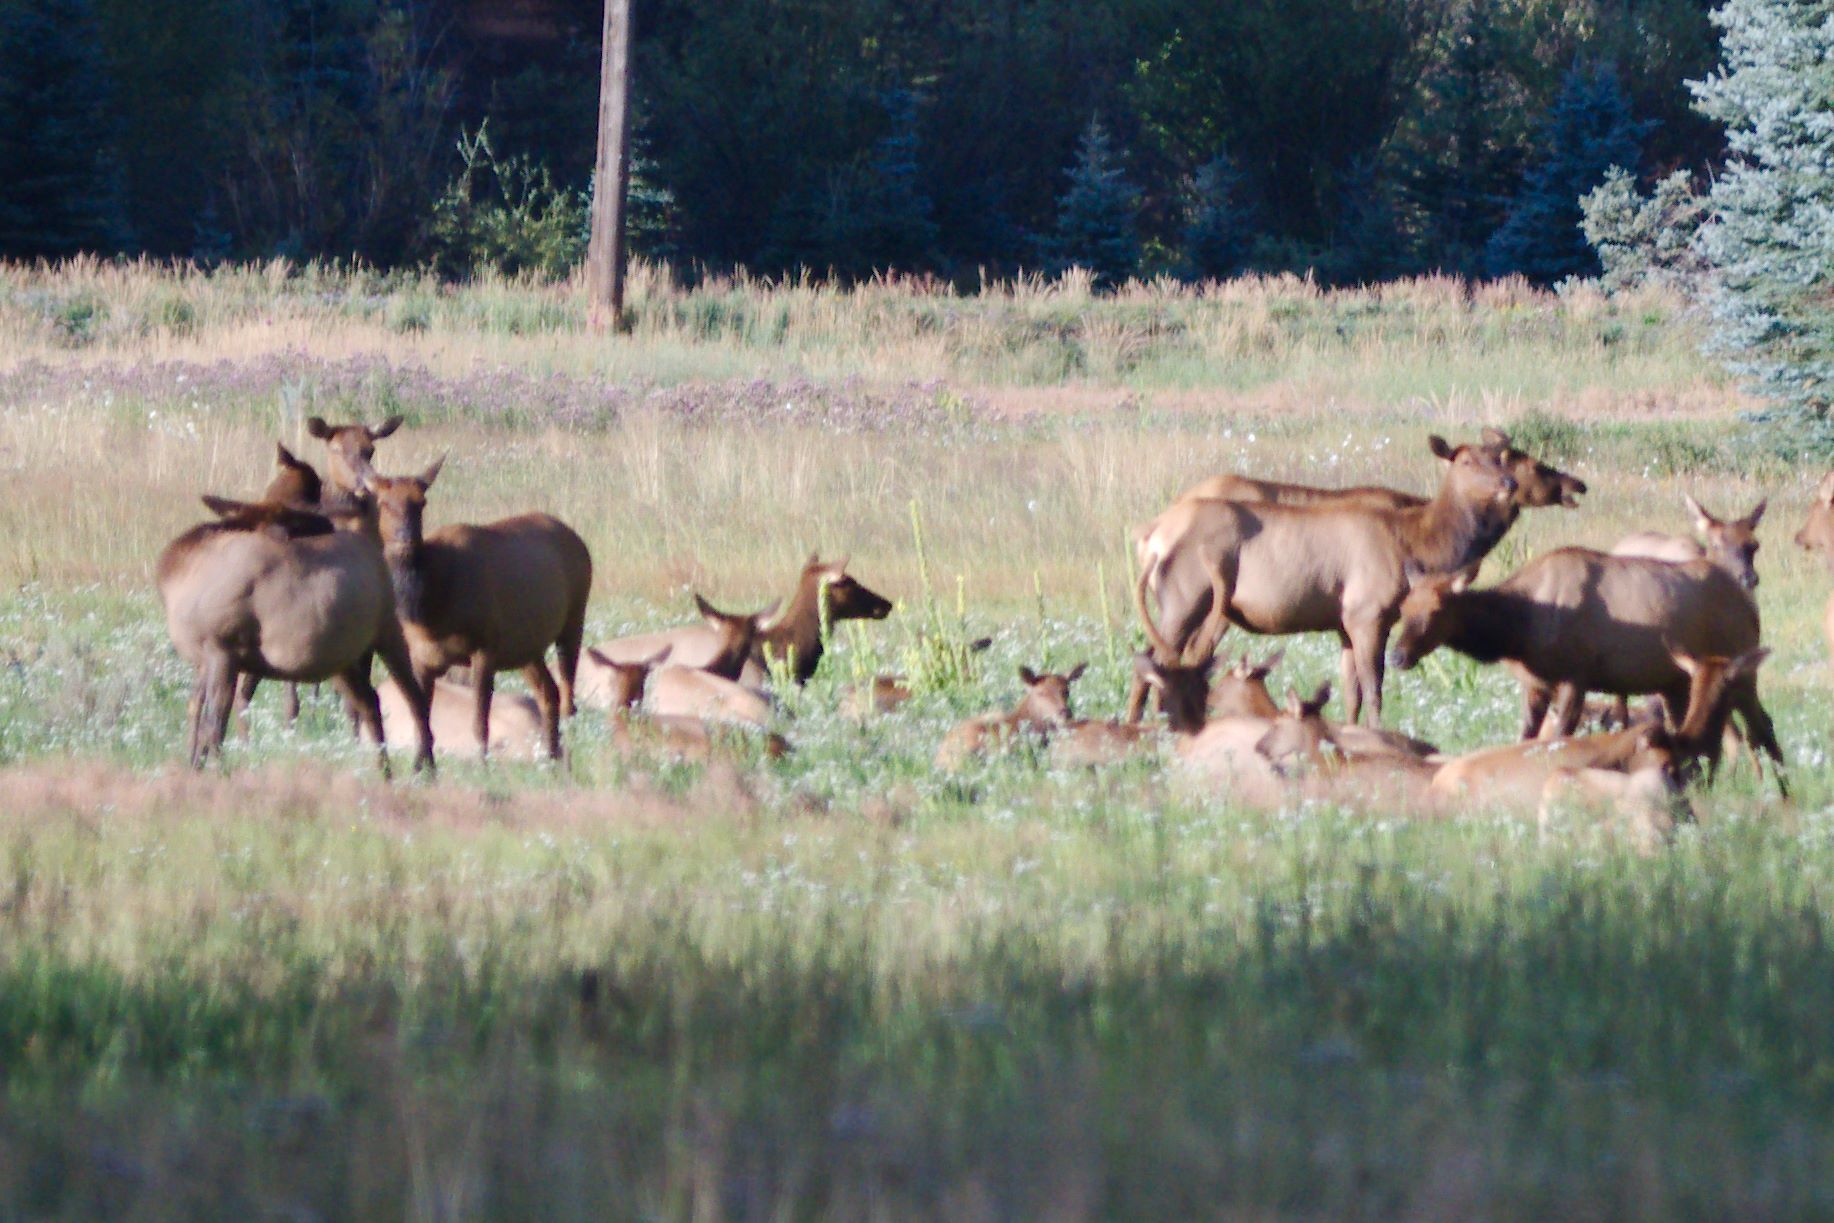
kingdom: Animalia
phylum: Chordata
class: Mammalia
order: Artiodactyla
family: Cervidae
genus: Cervus
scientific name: Cervus elaphus
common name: Red deer
